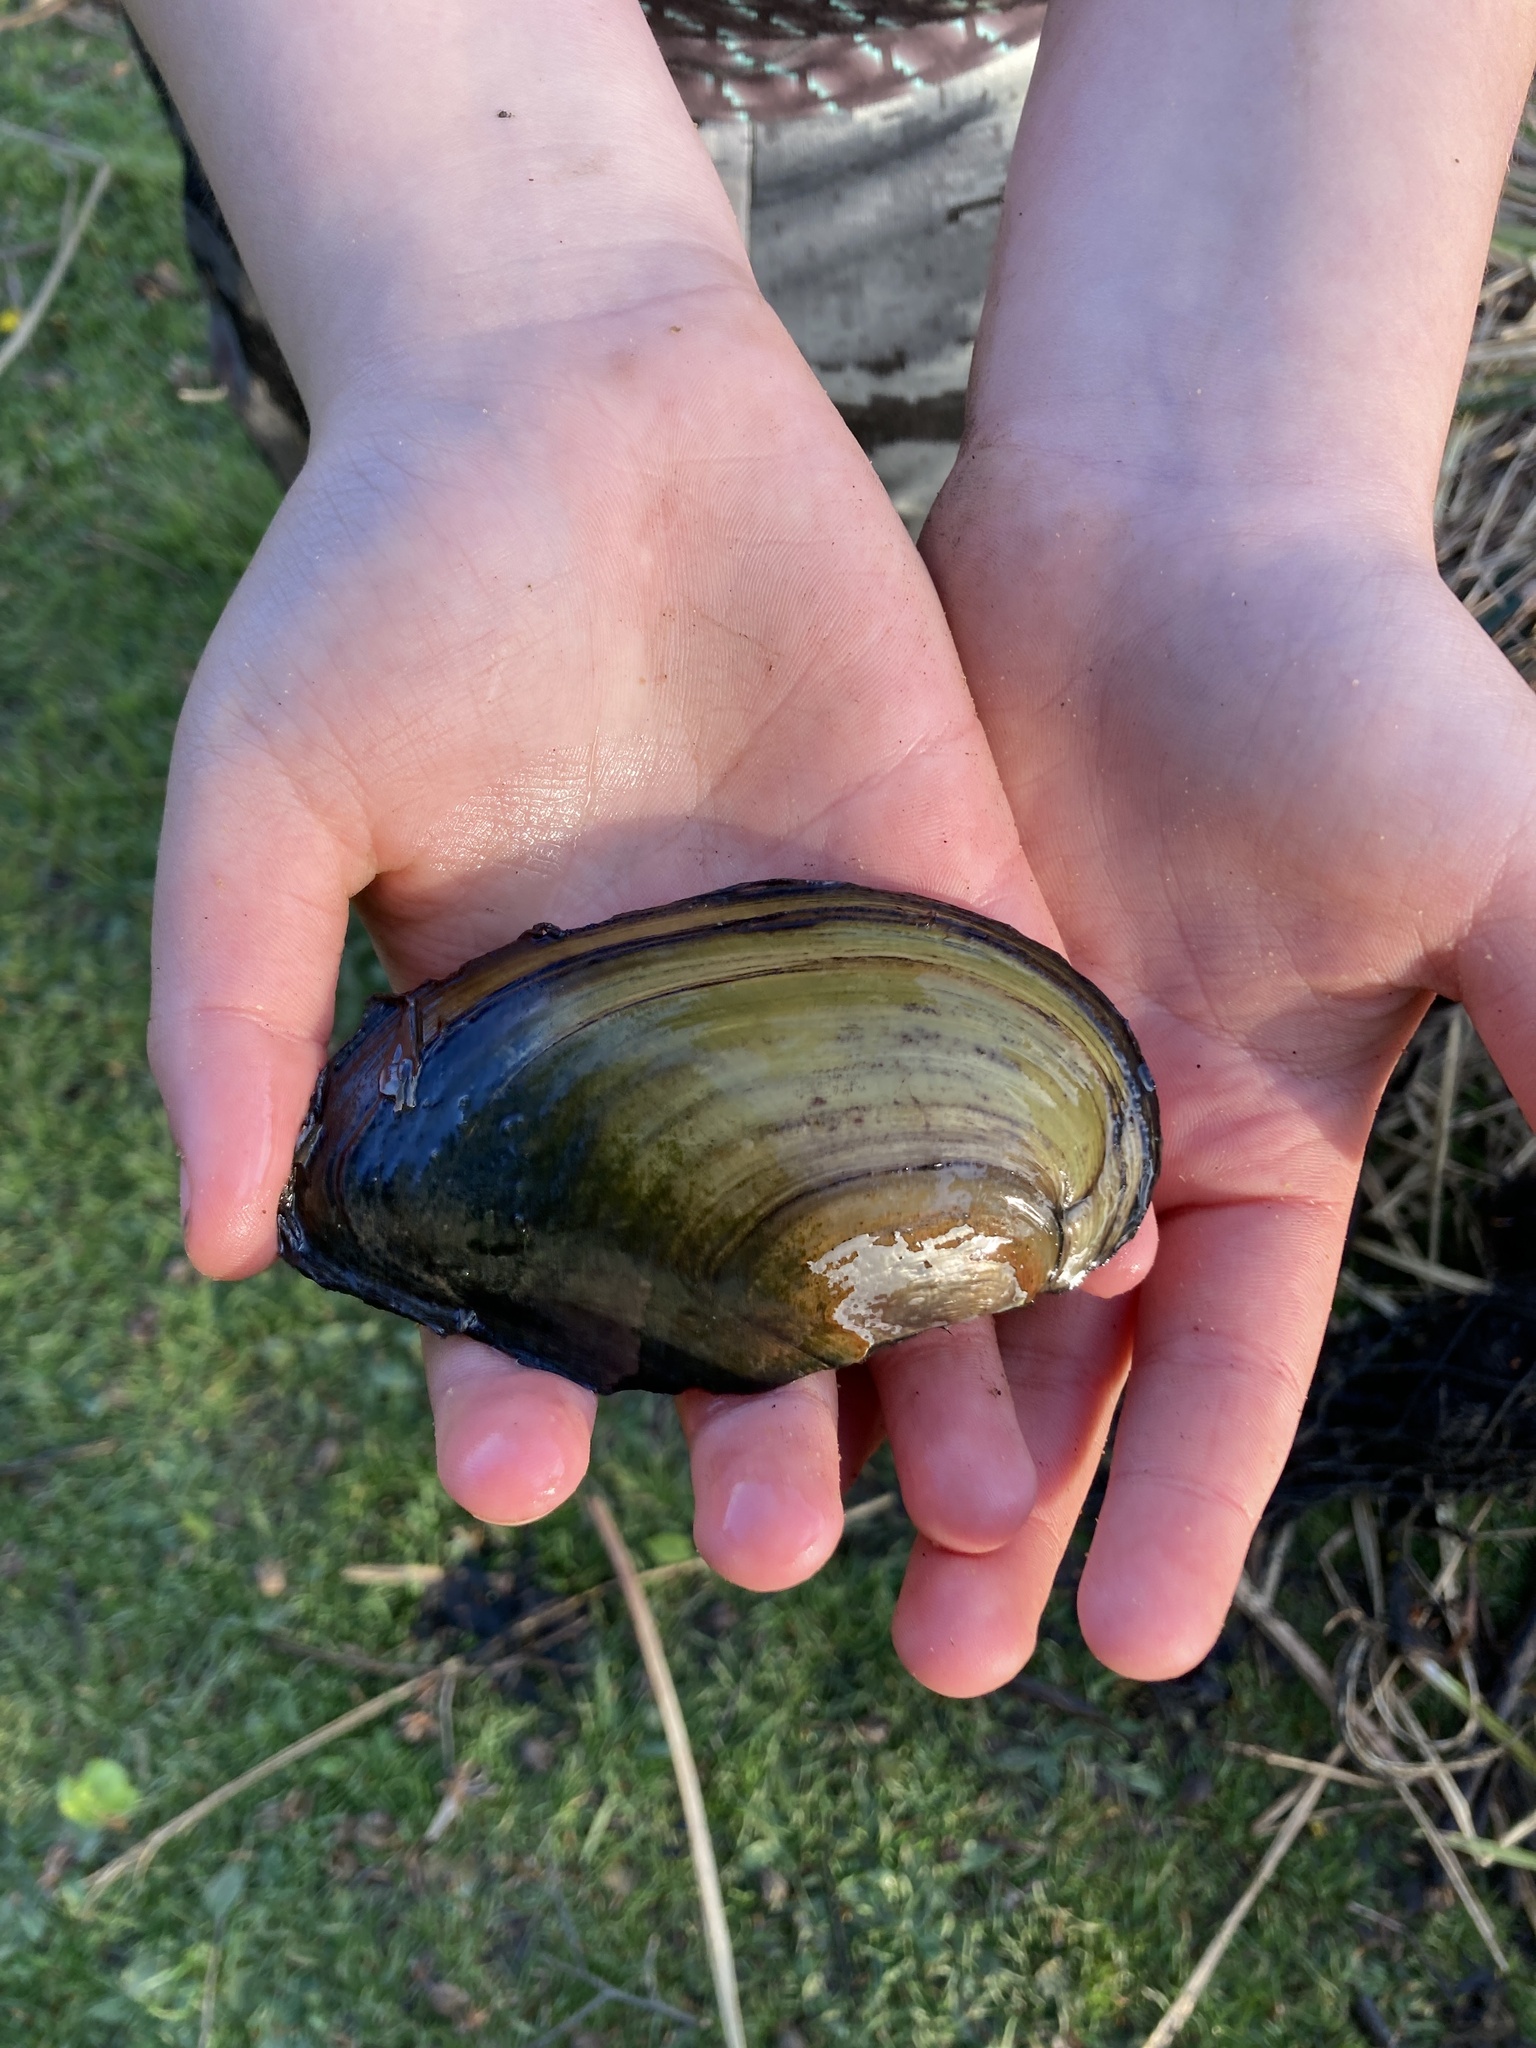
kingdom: Animalia
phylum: Mollusca
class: Bivalvia
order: Unionida
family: Unionidae
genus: Anodonta
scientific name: Anodonta cygnea
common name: Swan mussel
